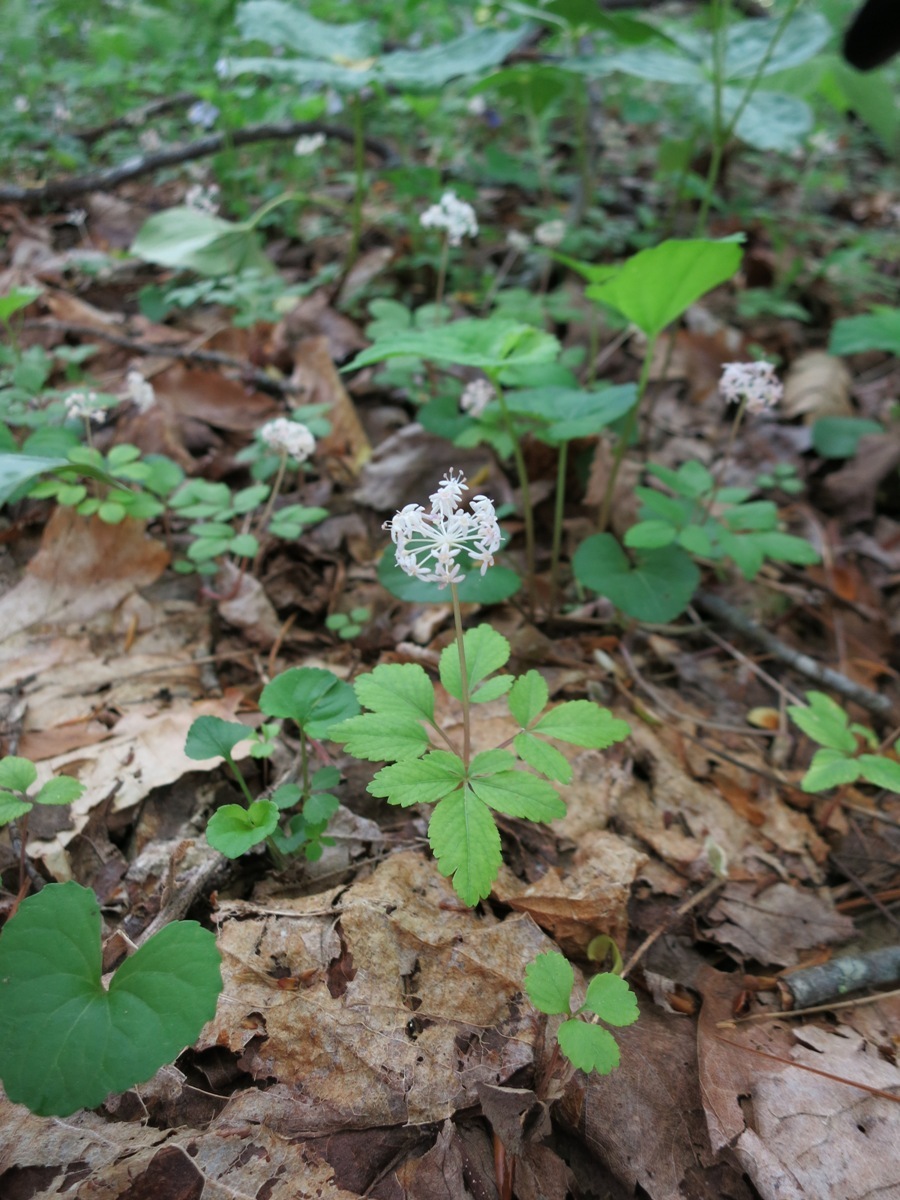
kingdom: Plantae
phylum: Tracheophyta
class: Magnoliopsida
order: Apiales
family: Araliaceae
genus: Panax
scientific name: Panax trifolius
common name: Dwarf ginseng
